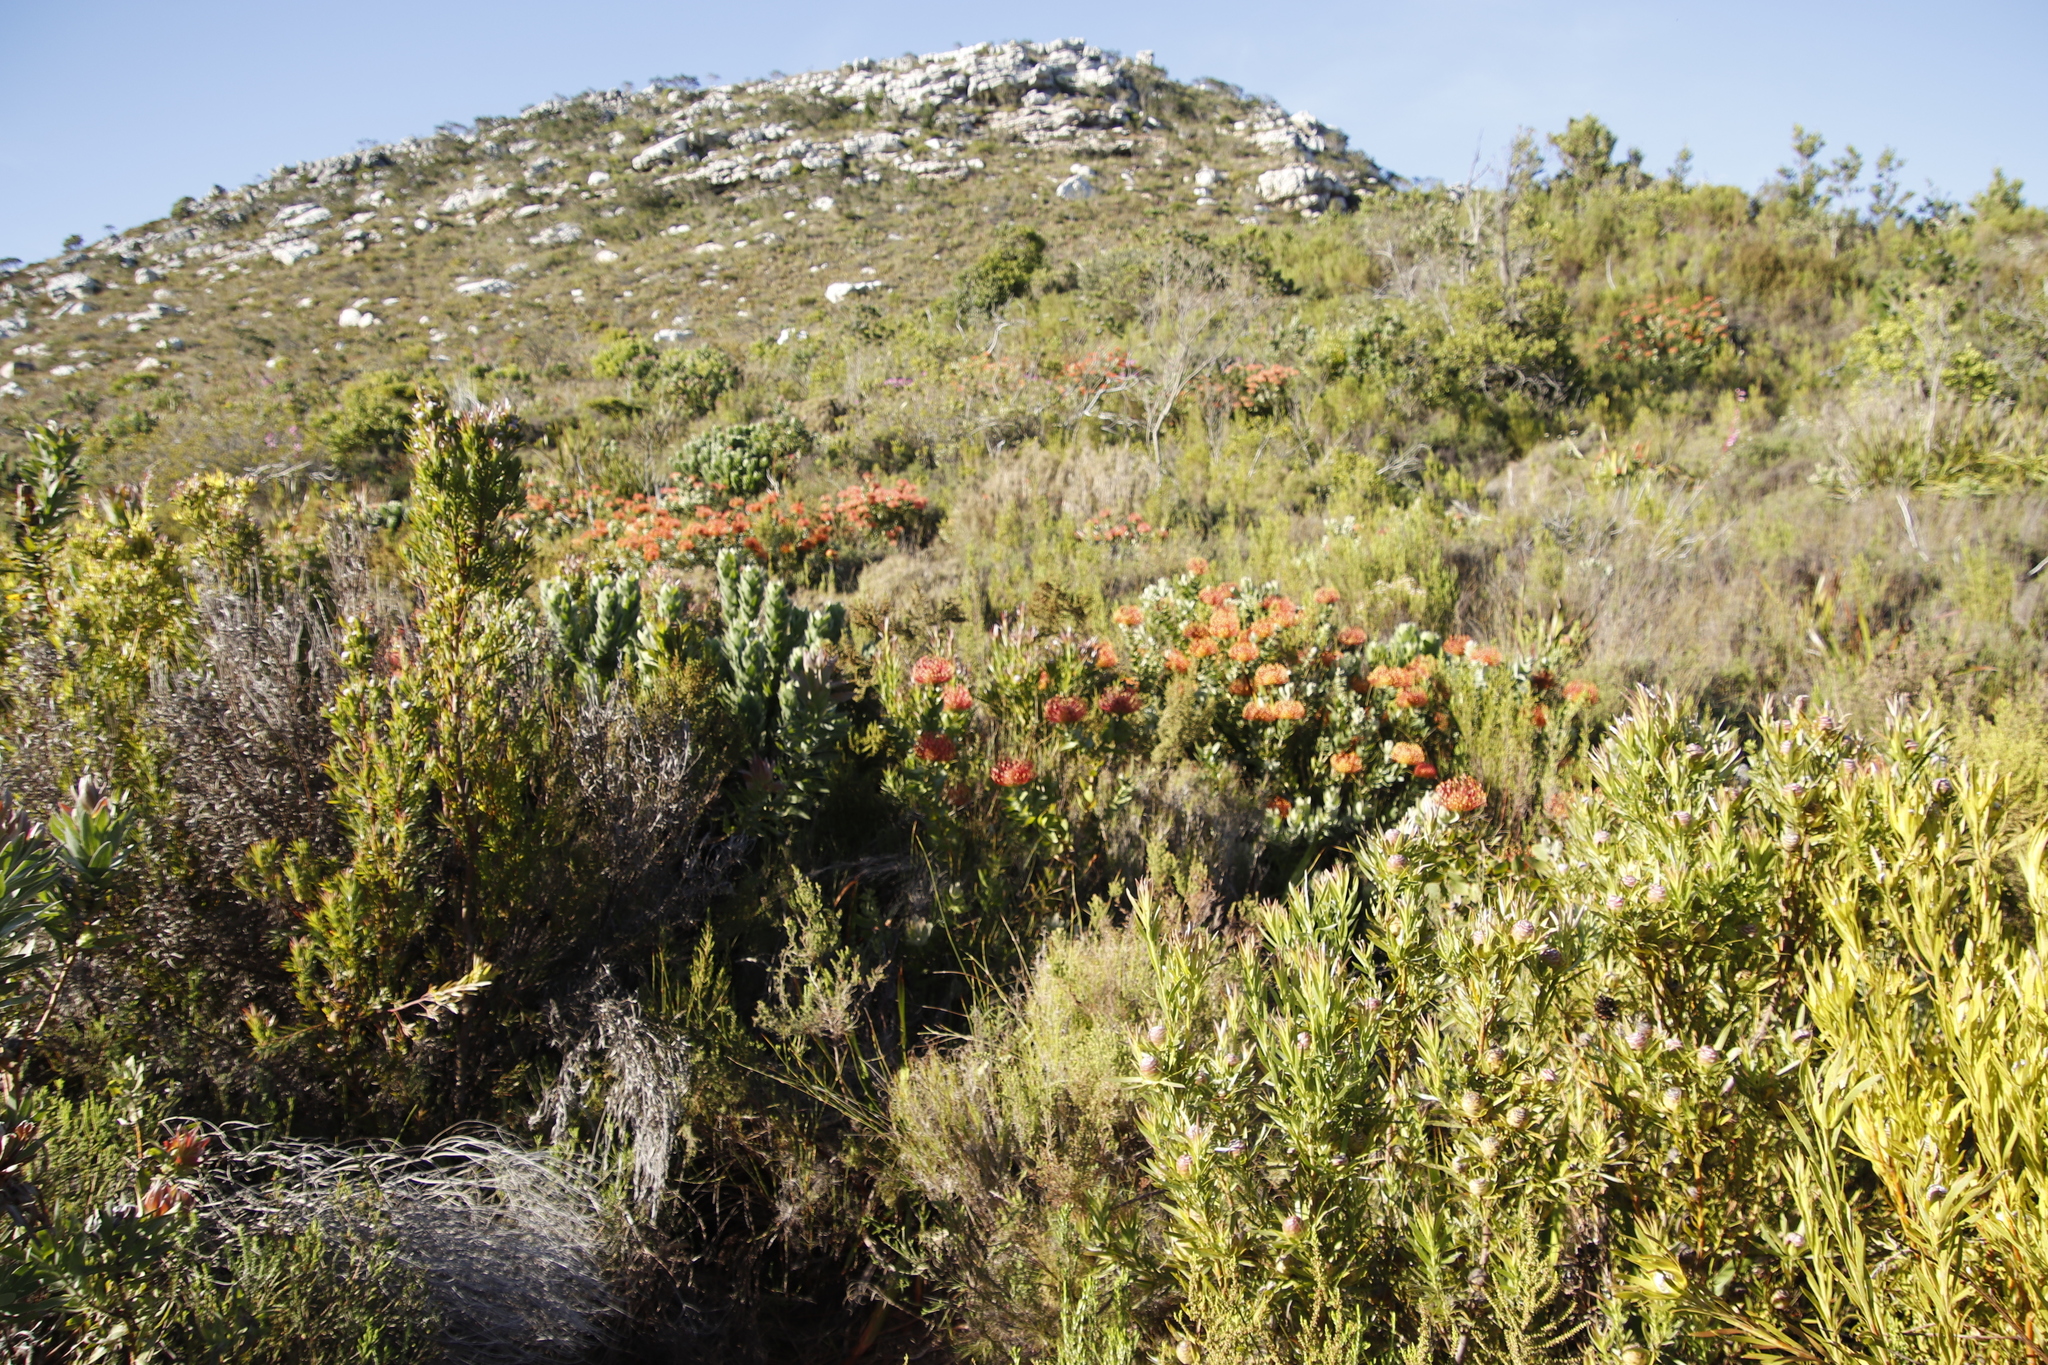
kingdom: Plantae
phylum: Tracheophyta
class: Magnoliopsida
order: Proteales
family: Proteaceae
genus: Leucospermum
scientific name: Leucospermum cordifolium
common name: Red pincushion-protea
